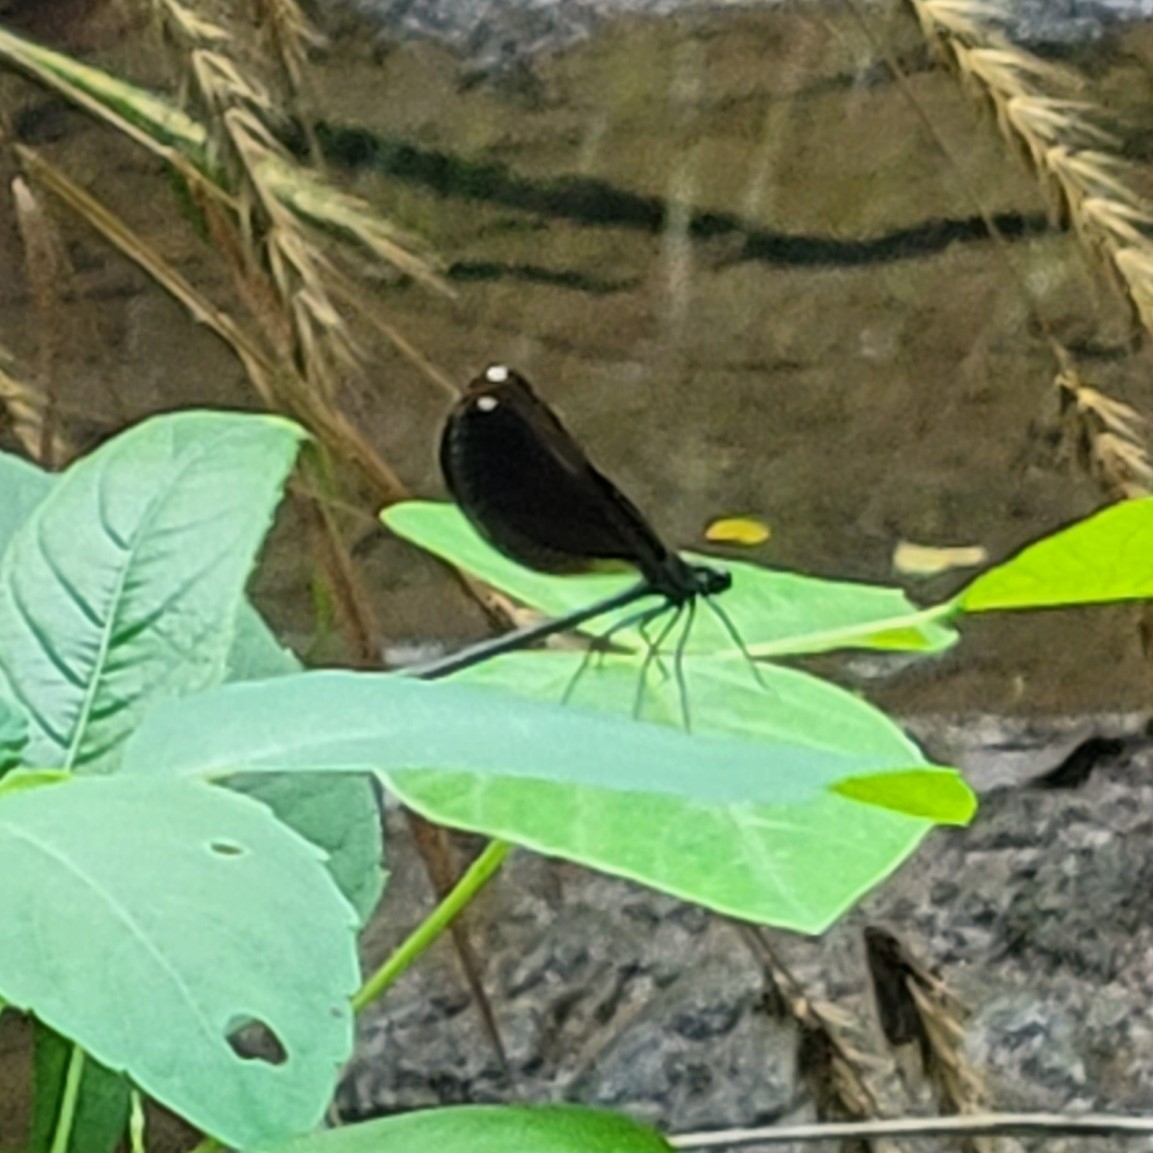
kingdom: Animalia
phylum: Arthropoda
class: Insecta
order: Odonata
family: Calopterygidae
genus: Calopteryx
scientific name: Calopteryx maculata
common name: Ebony jewelwing
